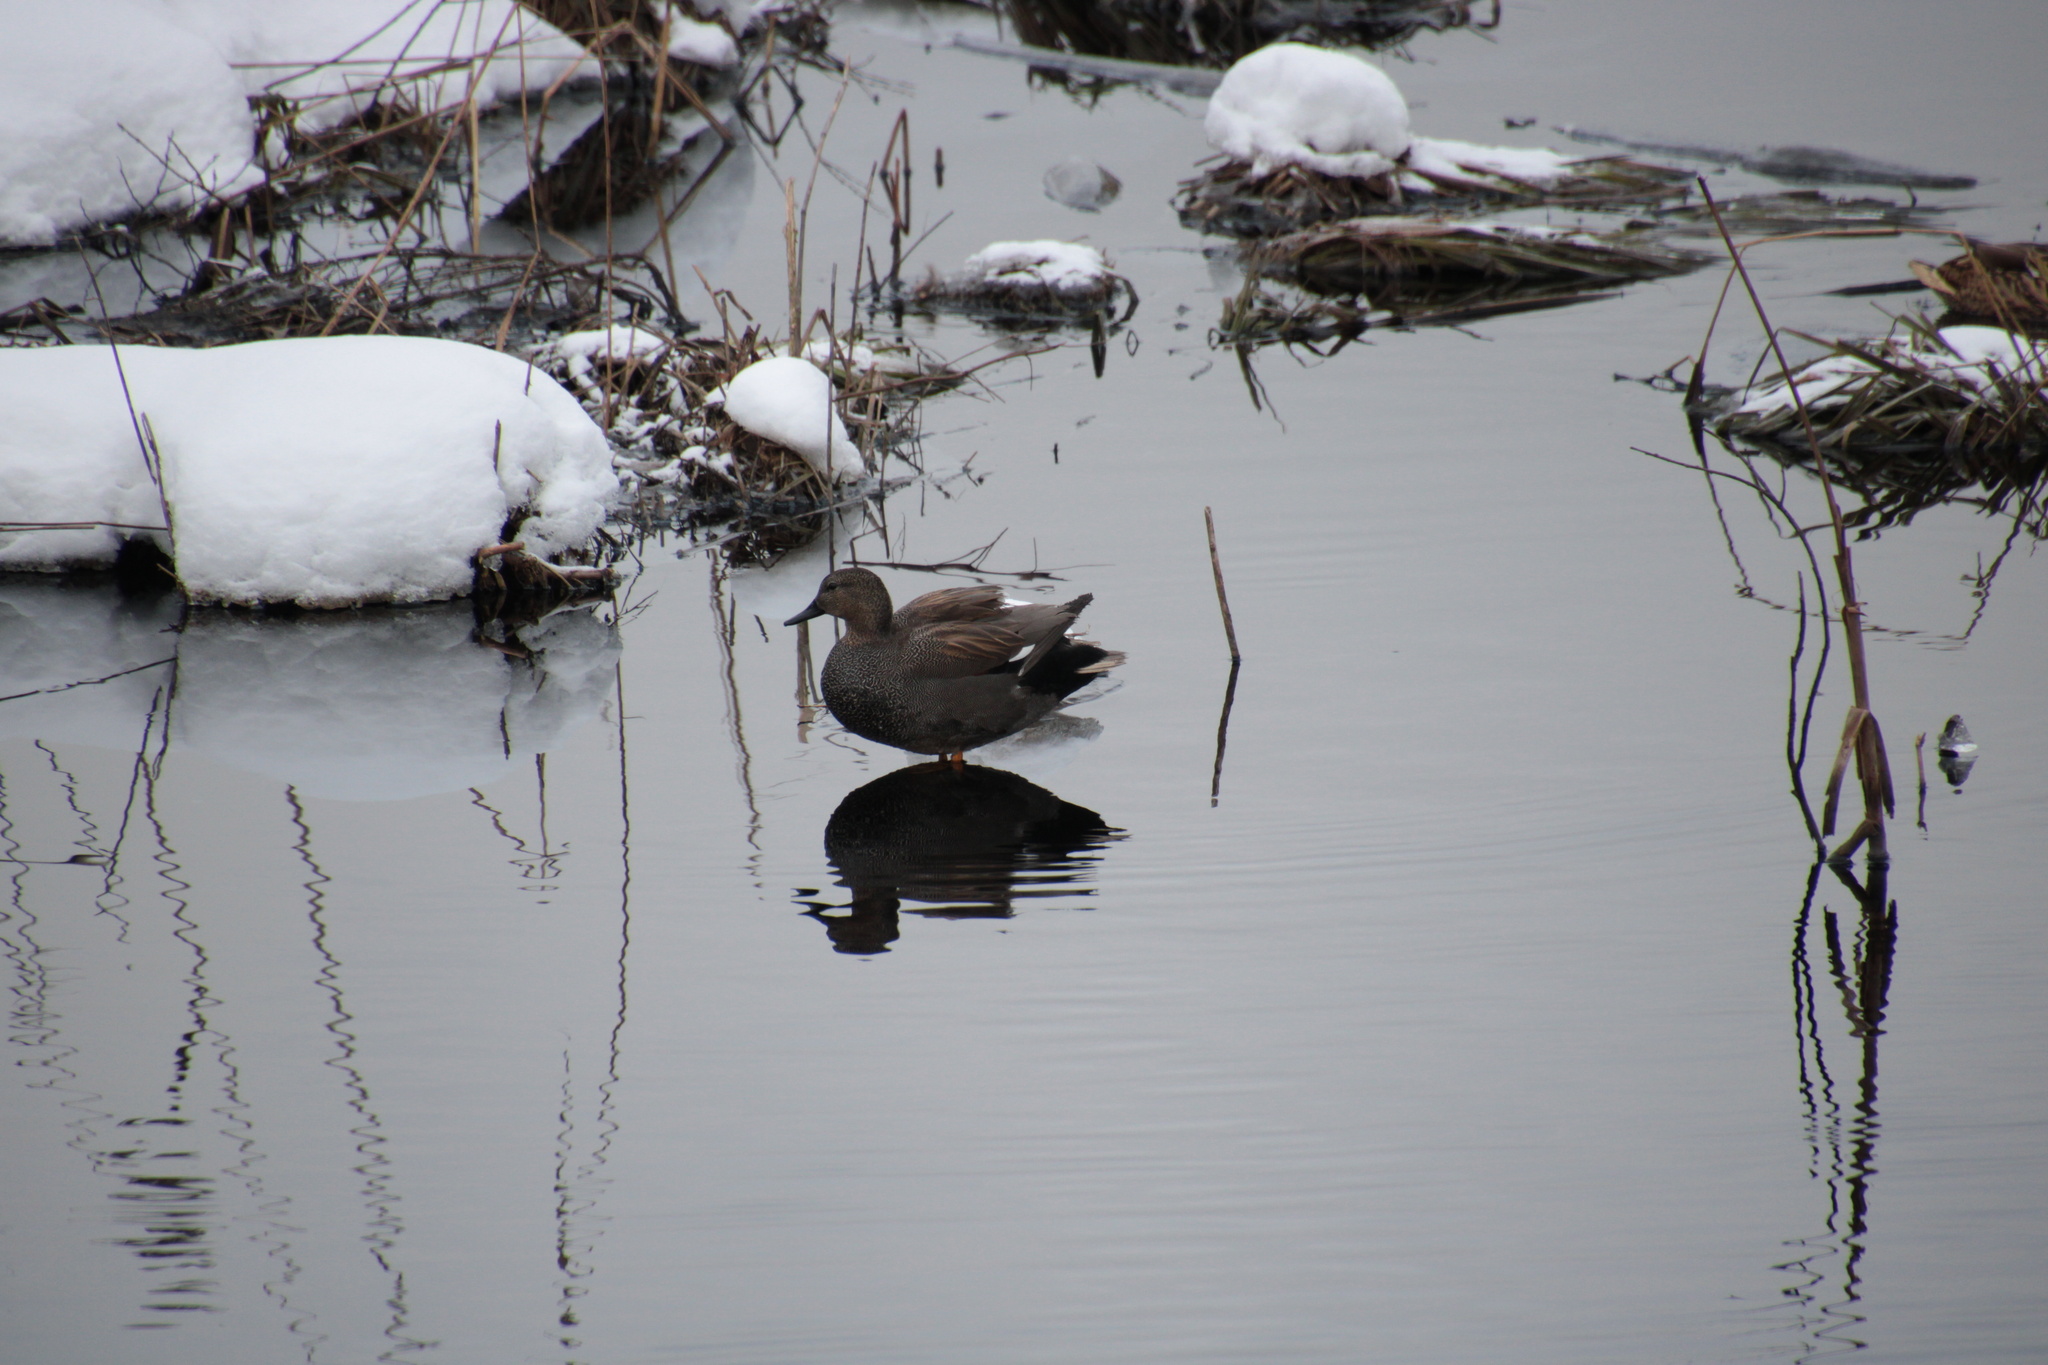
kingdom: Animalia
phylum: Chordata
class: Aves
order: Anseriformes
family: Anatidae
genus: Mareca
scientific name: Mareca strepera
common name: Gadwall
